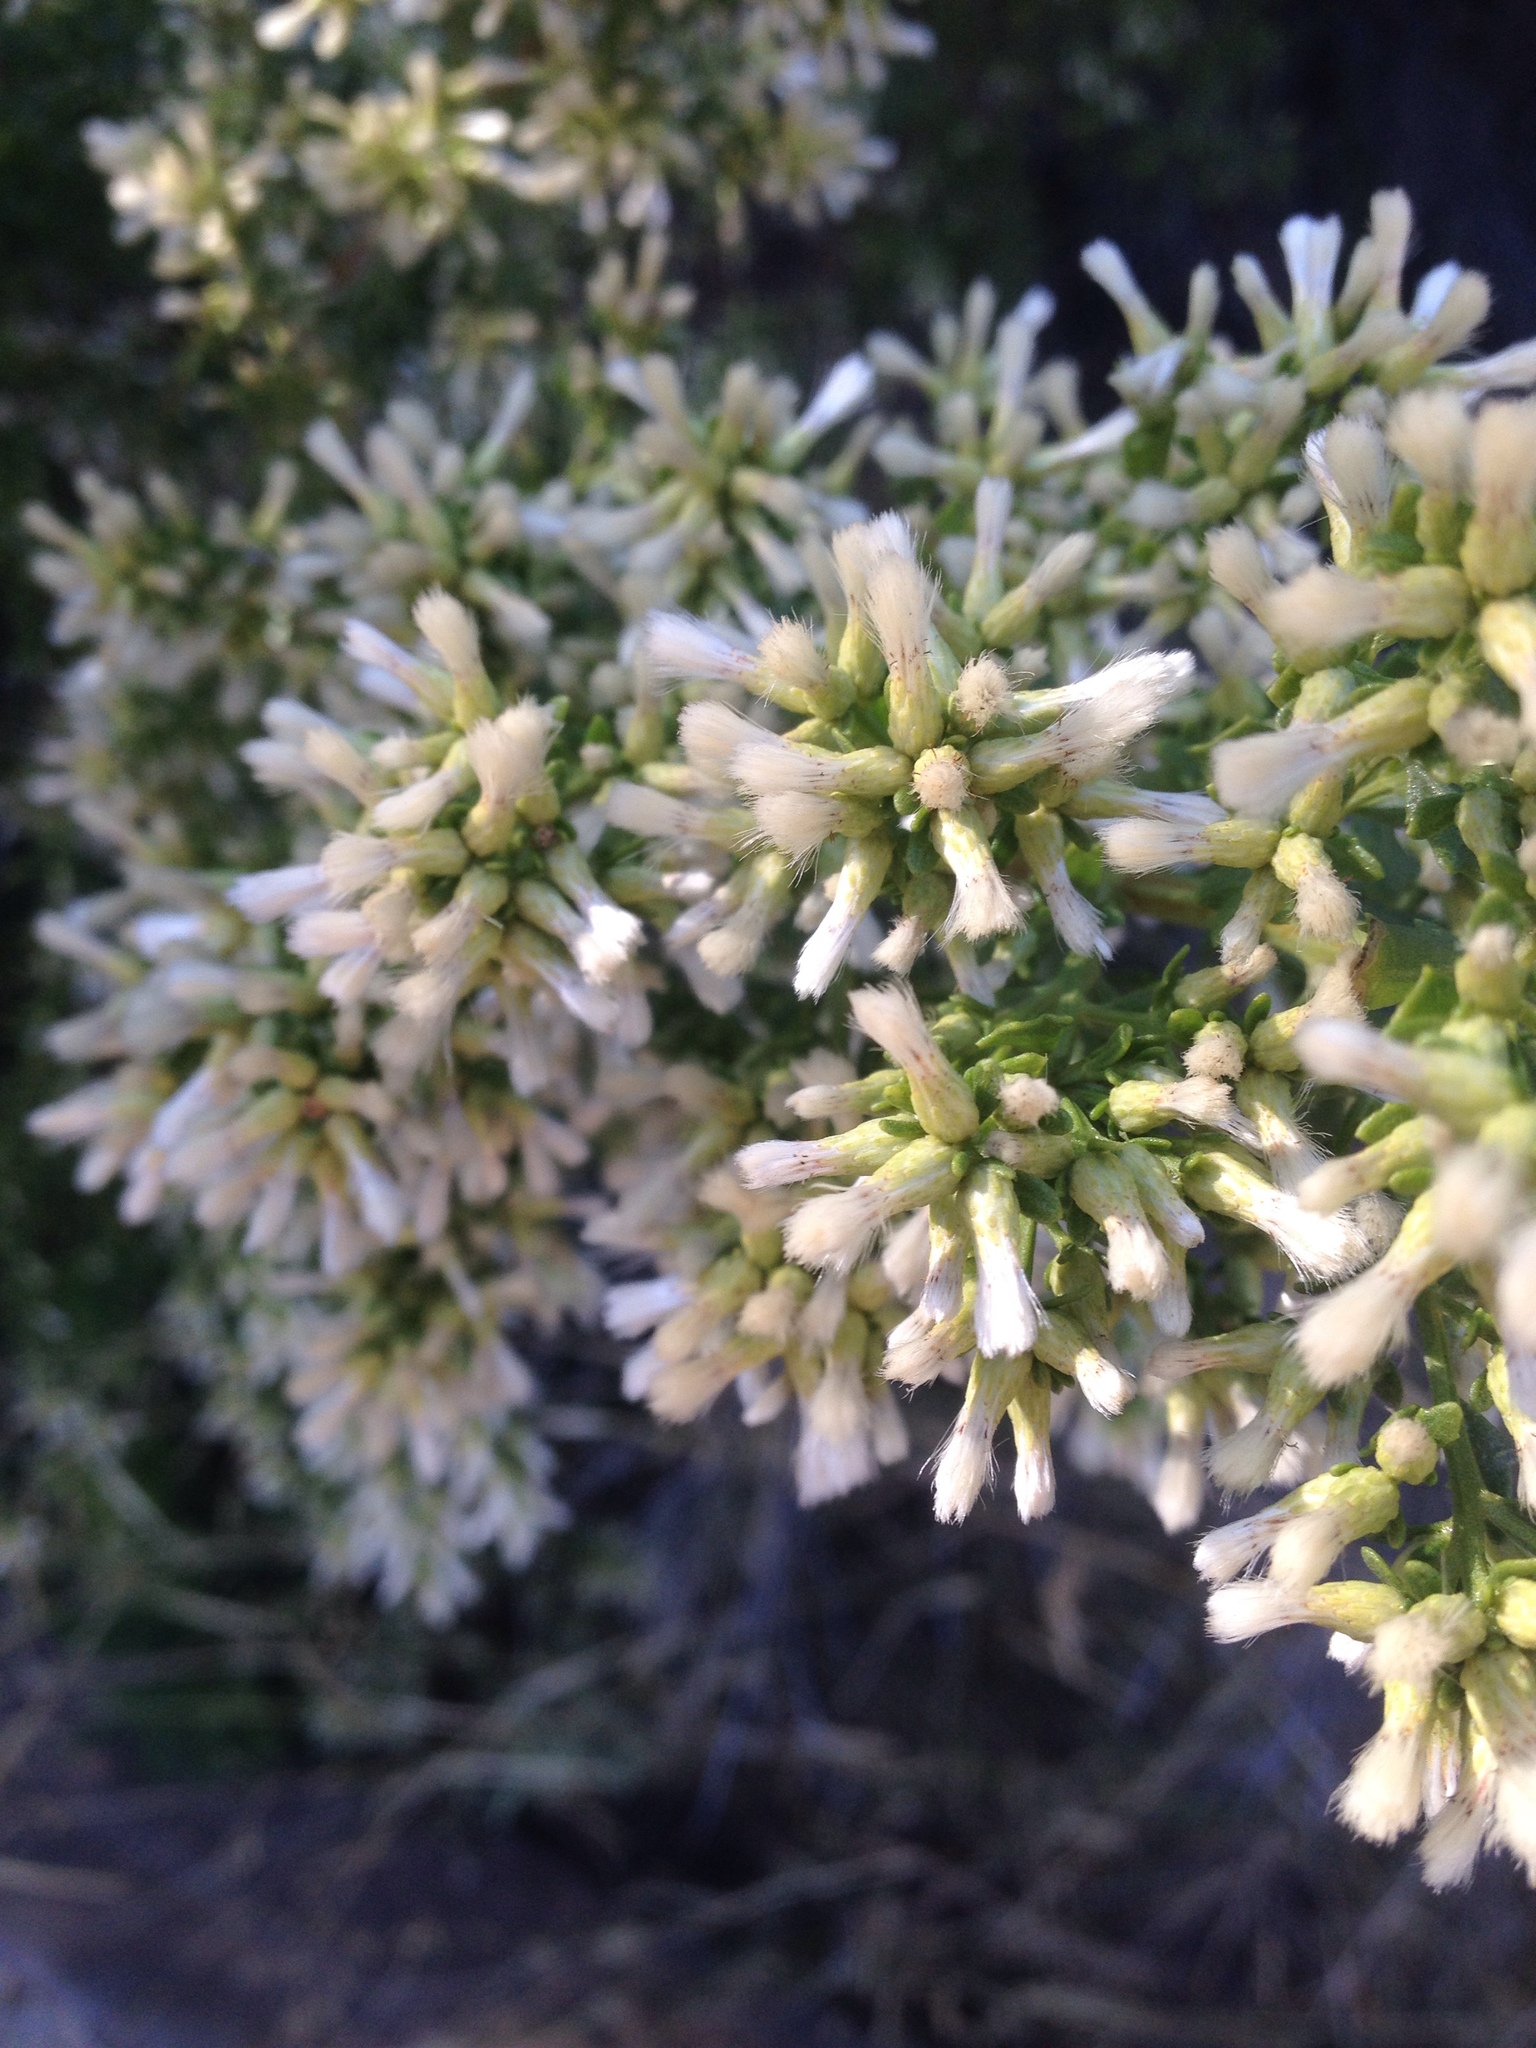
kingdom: Plantae
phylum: Tracheophyta
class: Magnoliopsida
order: Asterales
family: Asteraceae
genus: Baccharis
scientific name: Baccharis pilularis
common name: Coyotebrush
